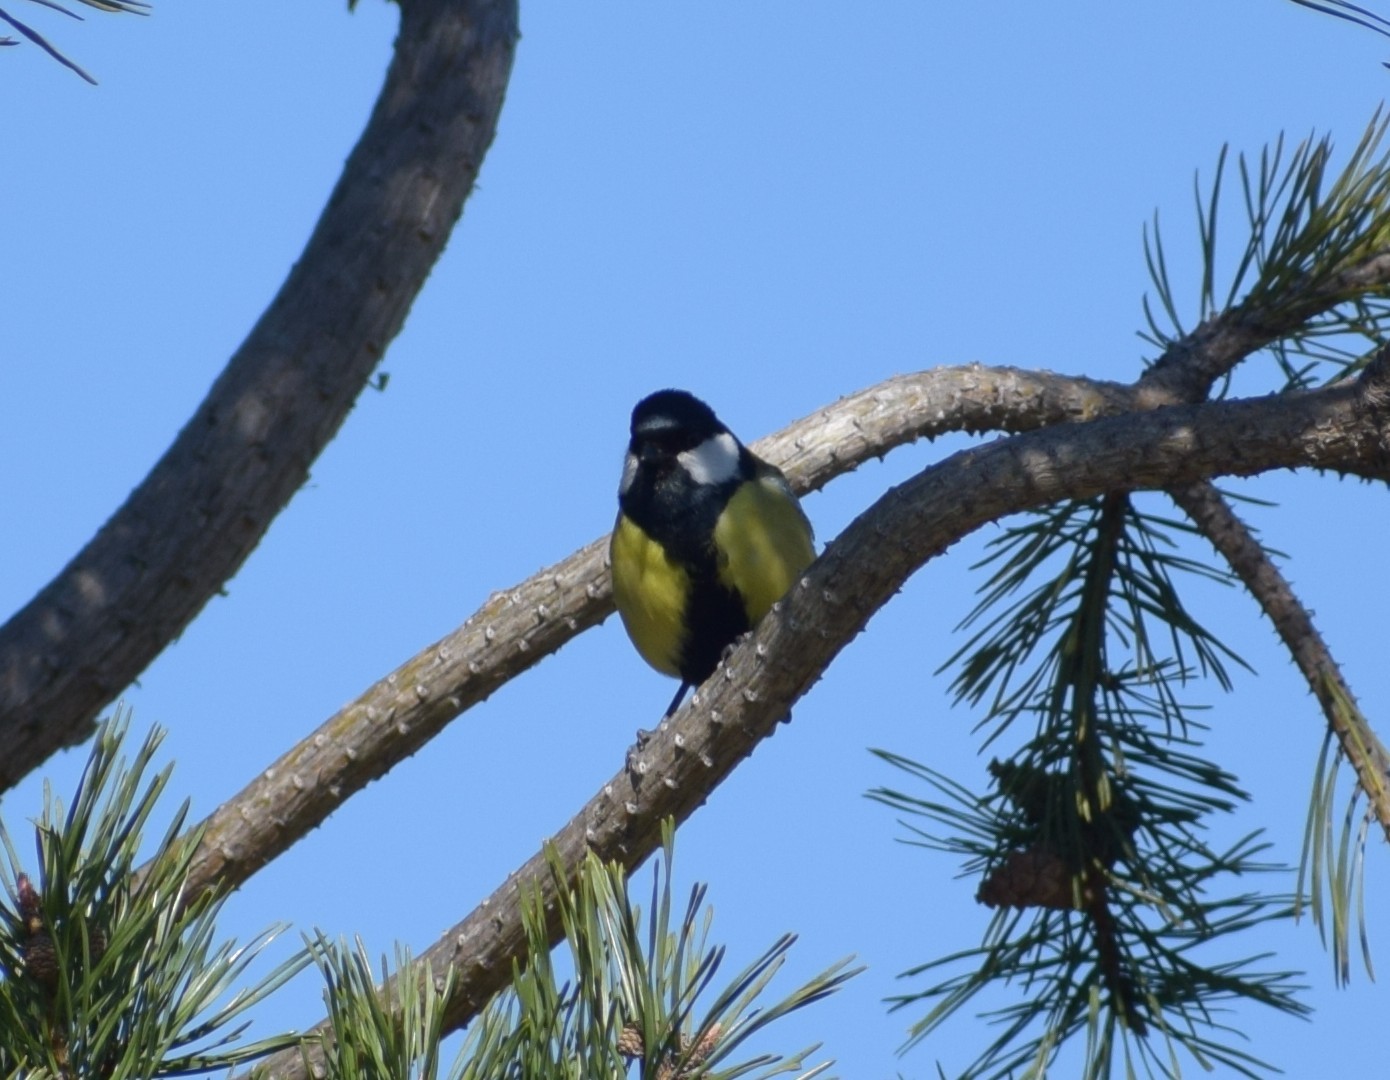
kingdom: Animalia
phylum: Chordata
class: Aves
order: Passeriformes
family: Paridae
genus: Parus
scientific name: Parus major
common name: Great tit
